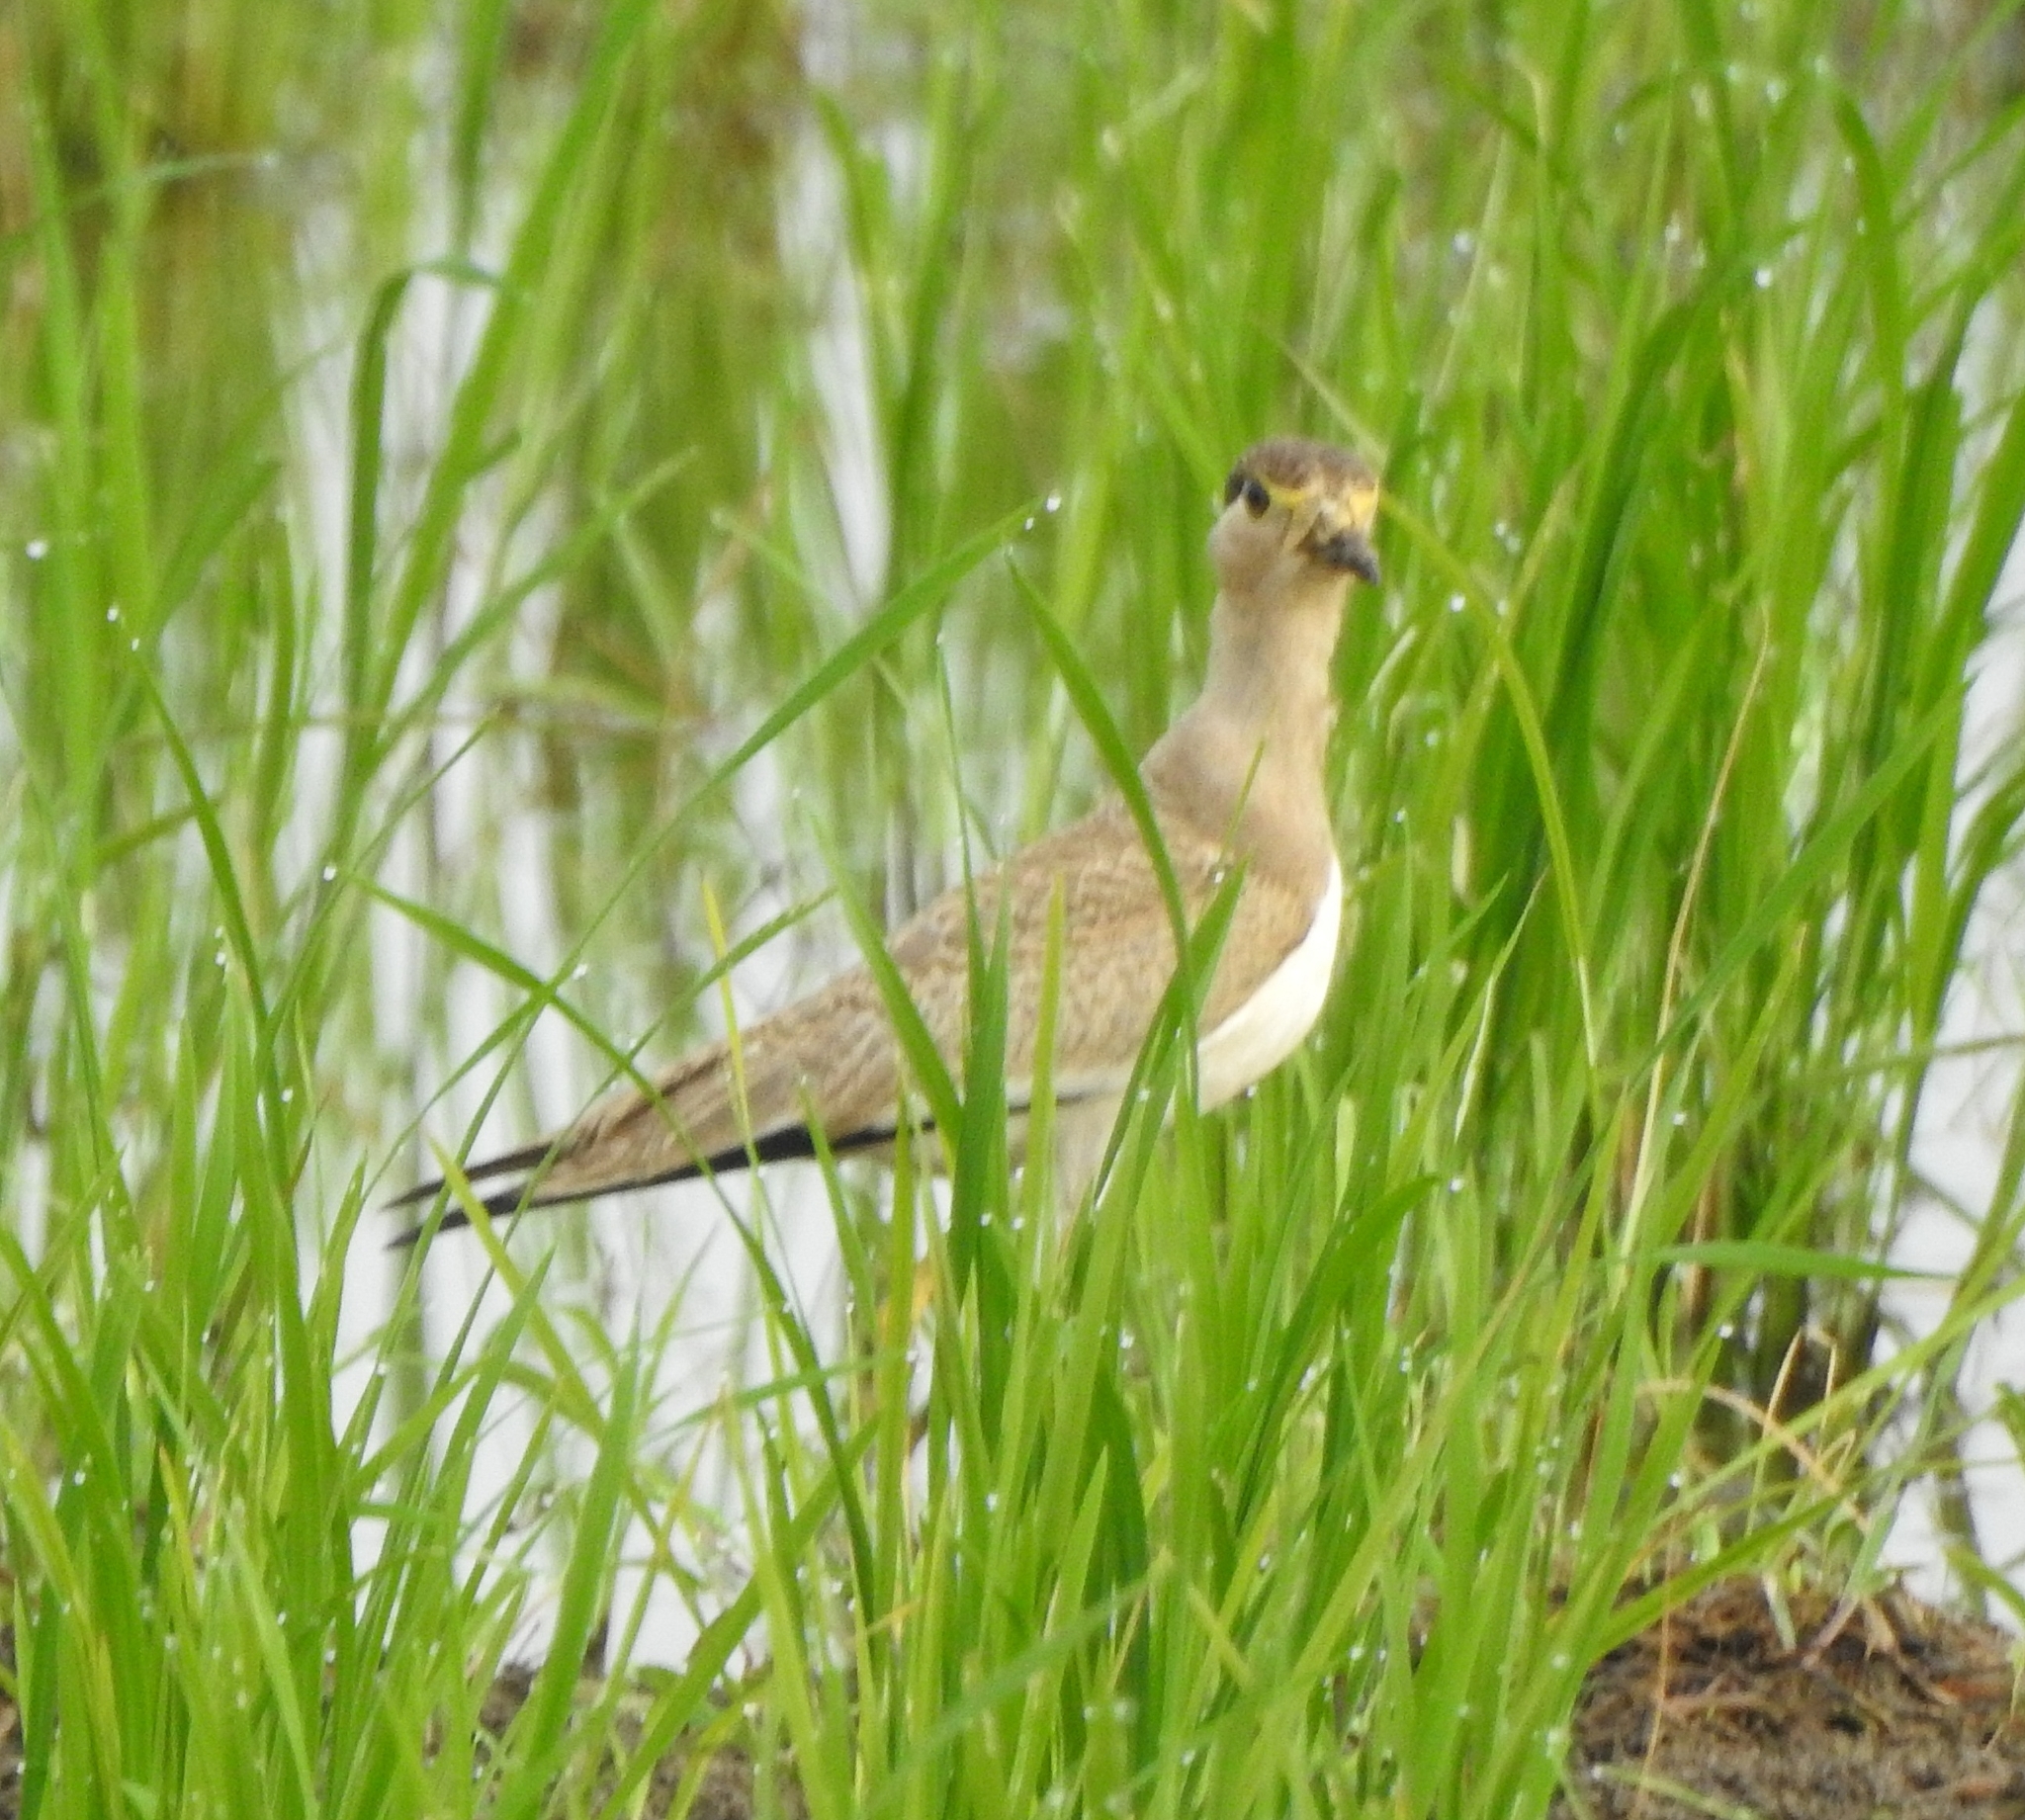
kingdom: Animalia
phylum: Chordata
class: Aves
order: Charadriiformes
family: Charadriidae
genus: Vanellus
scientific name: Vanellus malabaricus
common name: Yellow-wattled lapwing
